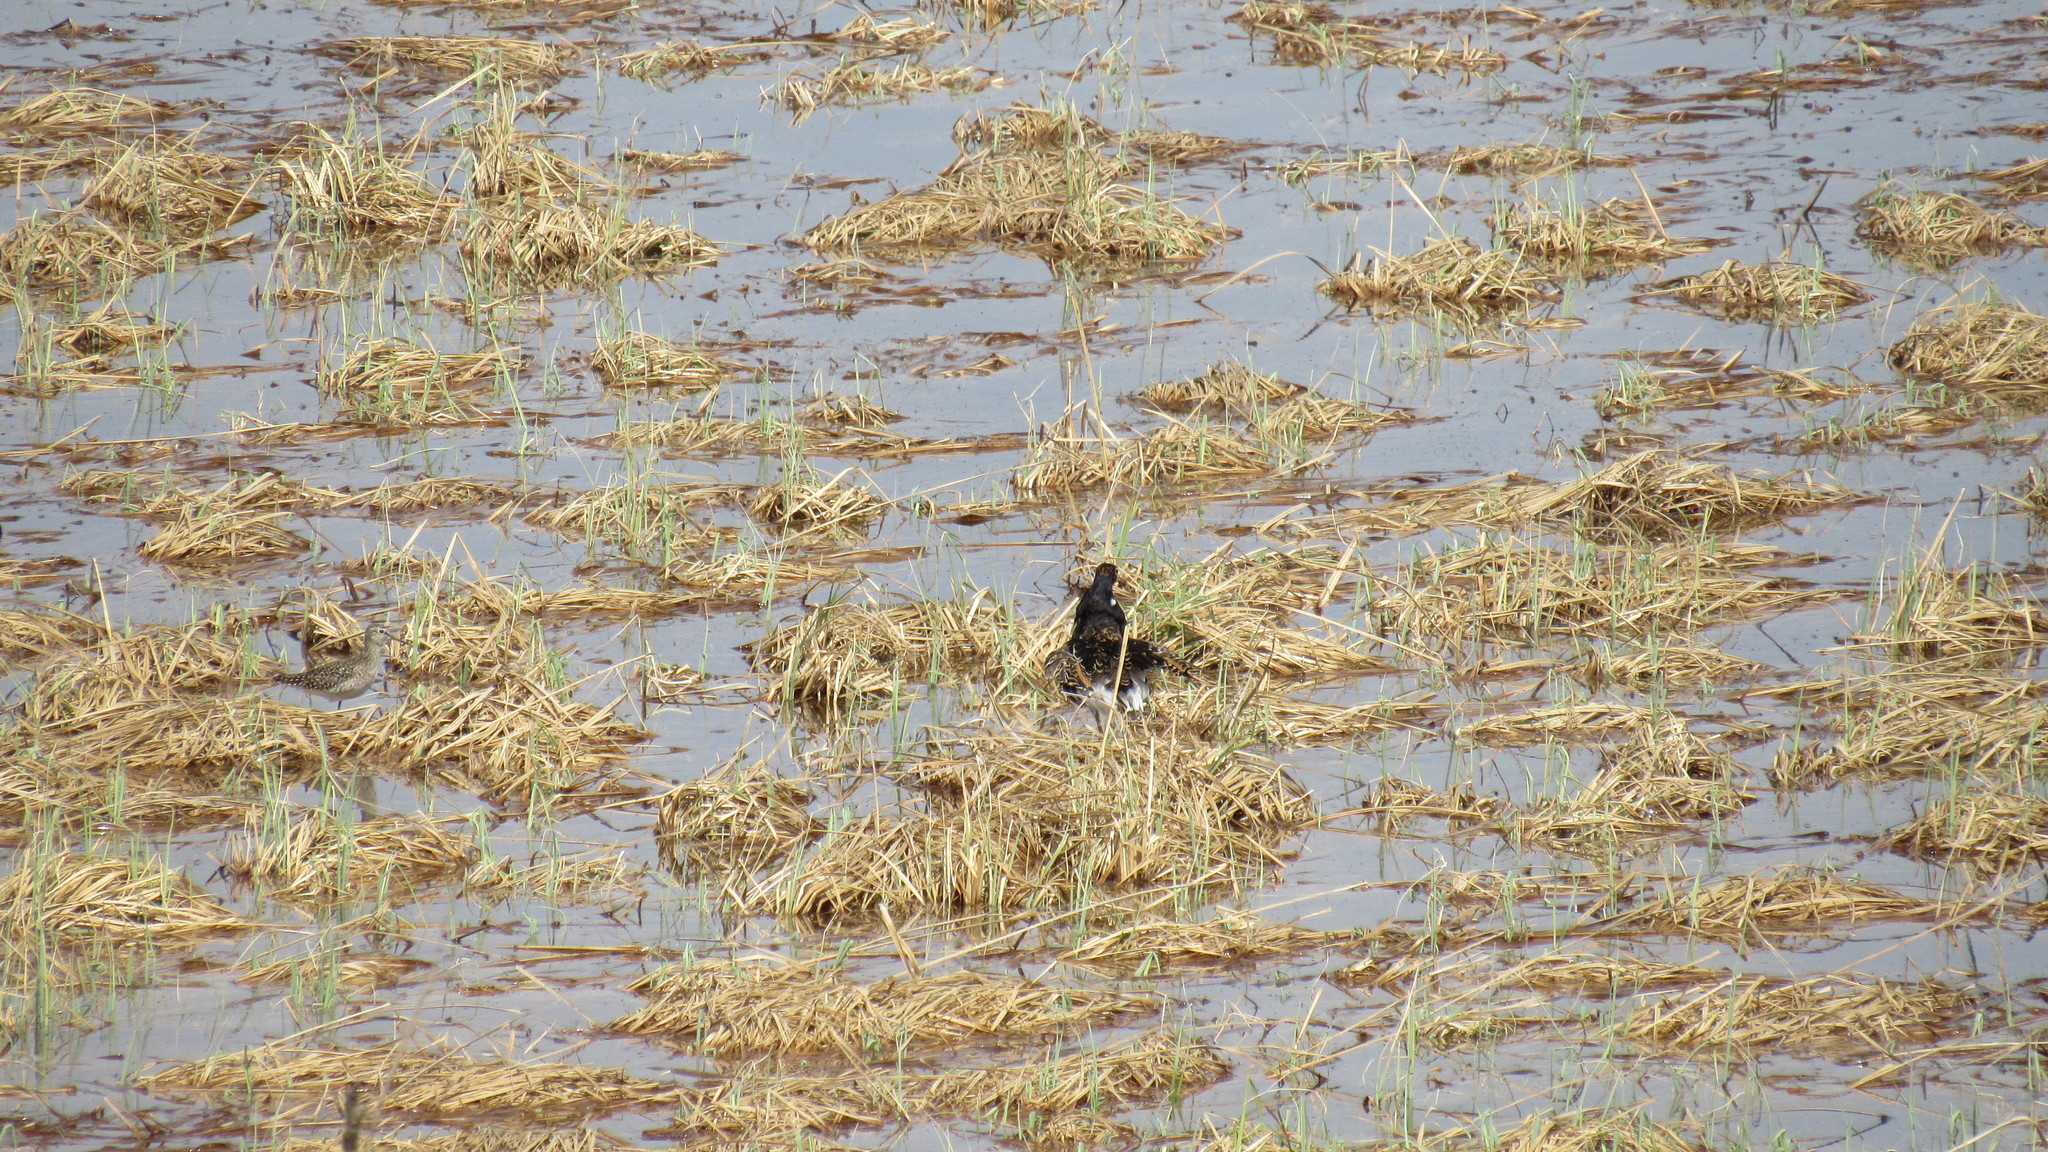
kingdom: Animalia
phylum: Chordata
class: Aves
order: Charadriiformes
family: Scolopacidae
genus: Calidris
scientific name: Calidris pugnax
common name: Ruff
